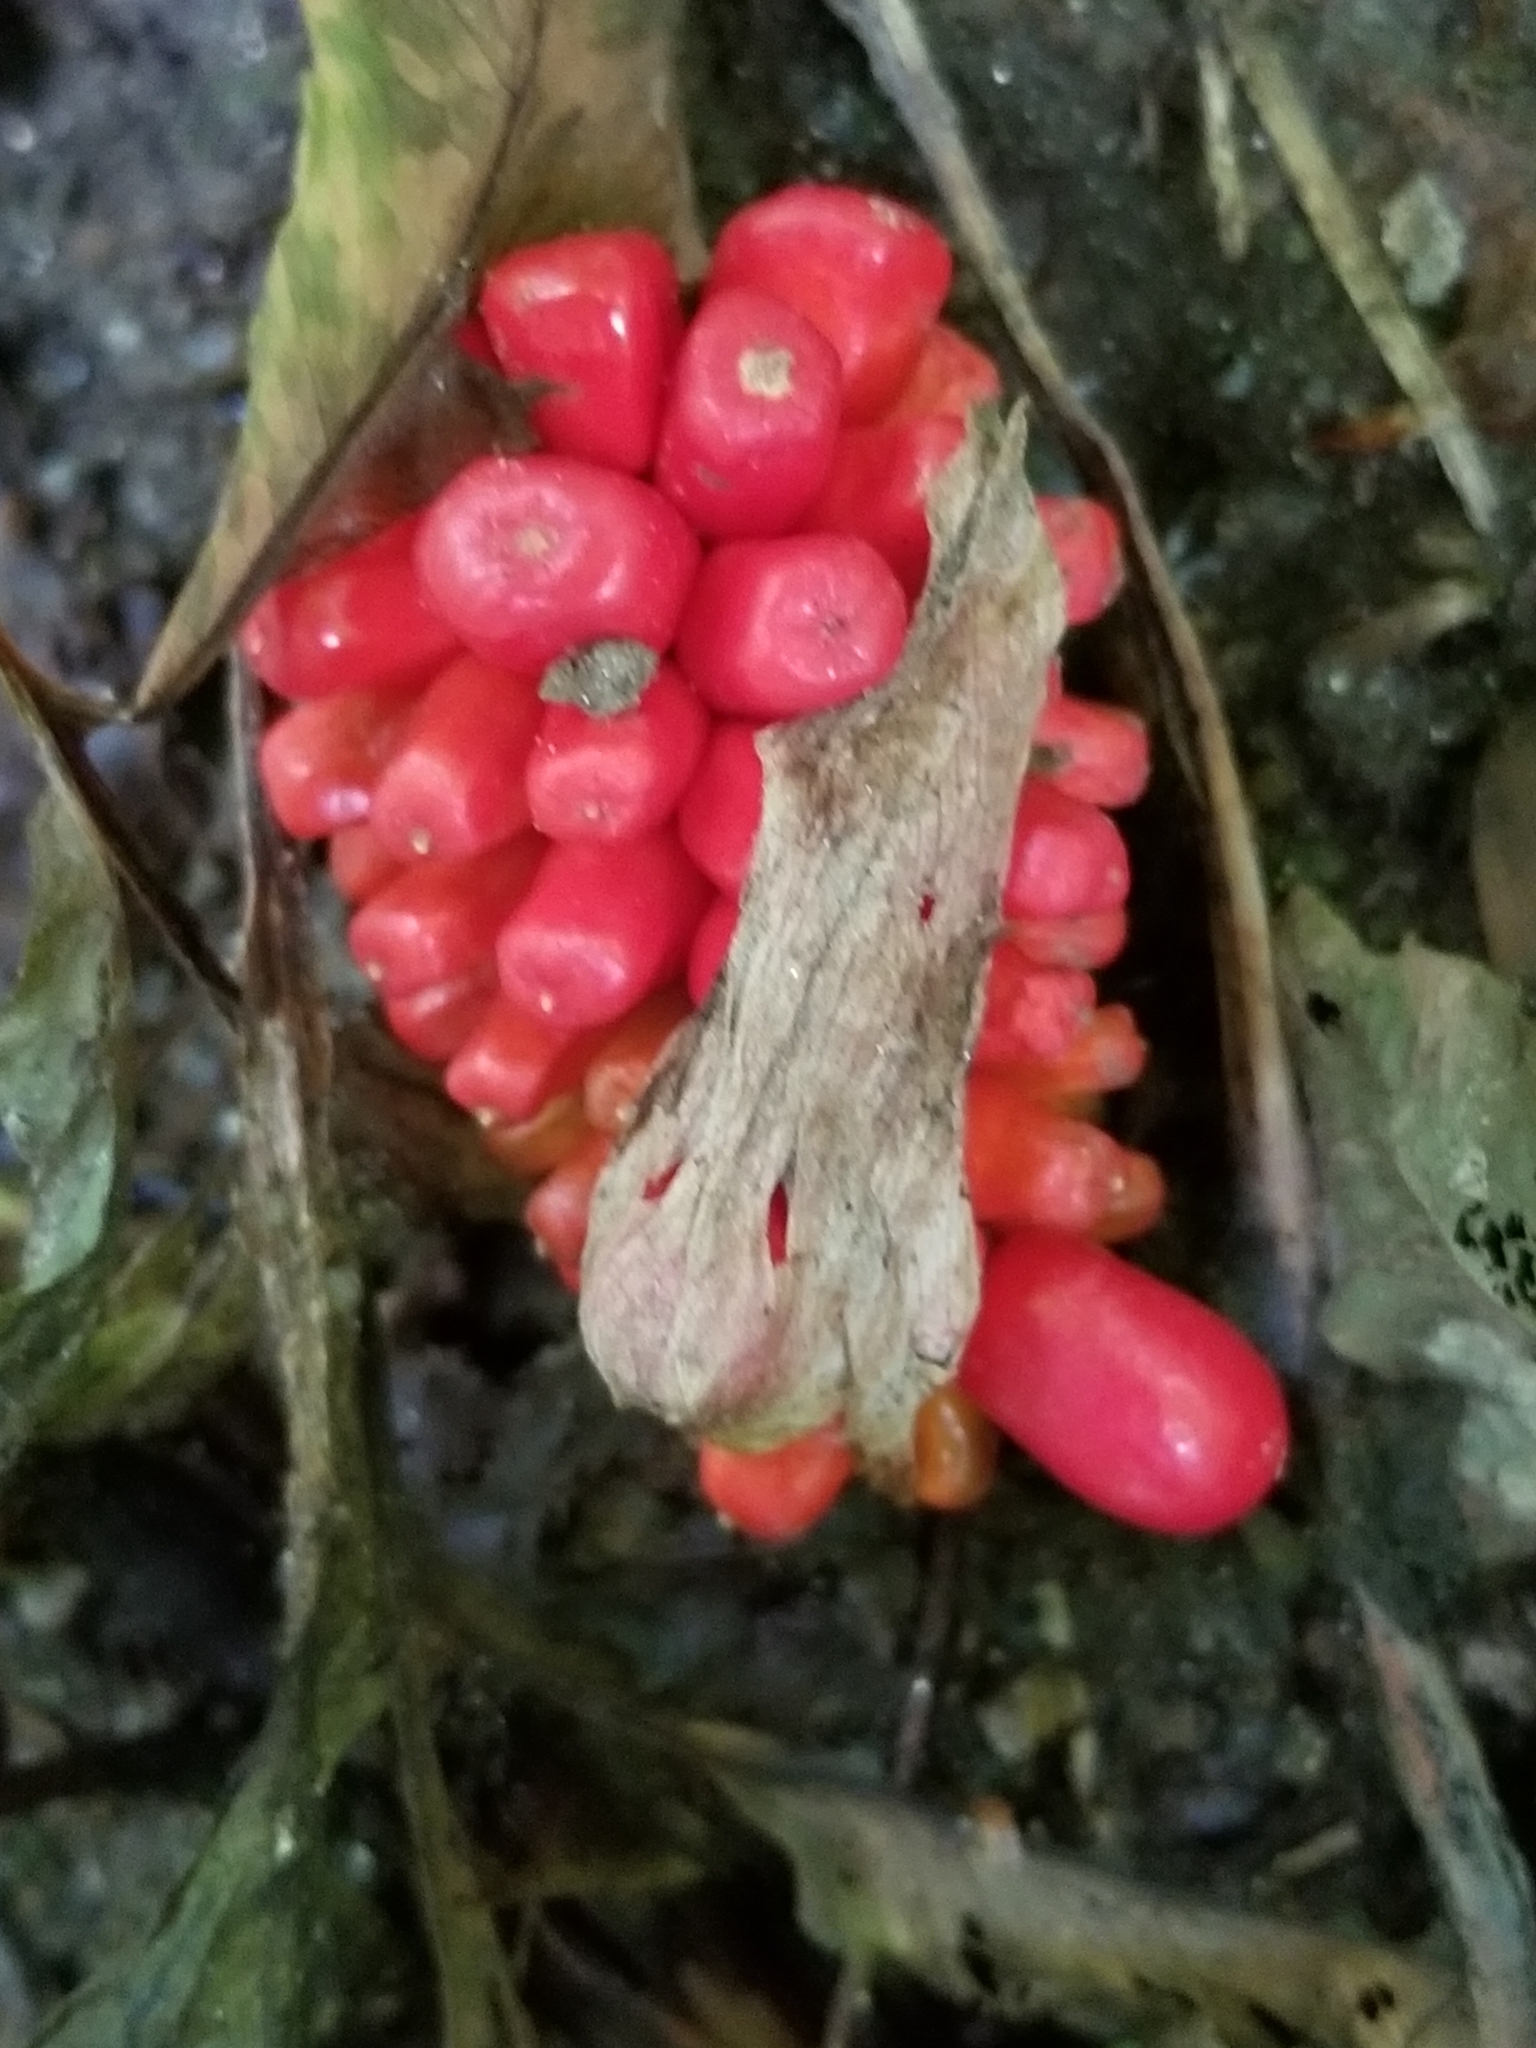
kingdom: Plantae
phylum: Tracheophyta
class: Liliopsida
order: Alismatales
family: Araceae
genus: Arisaema
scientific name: Arisaema triphyllum
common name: Jack-in-the-pulpit
